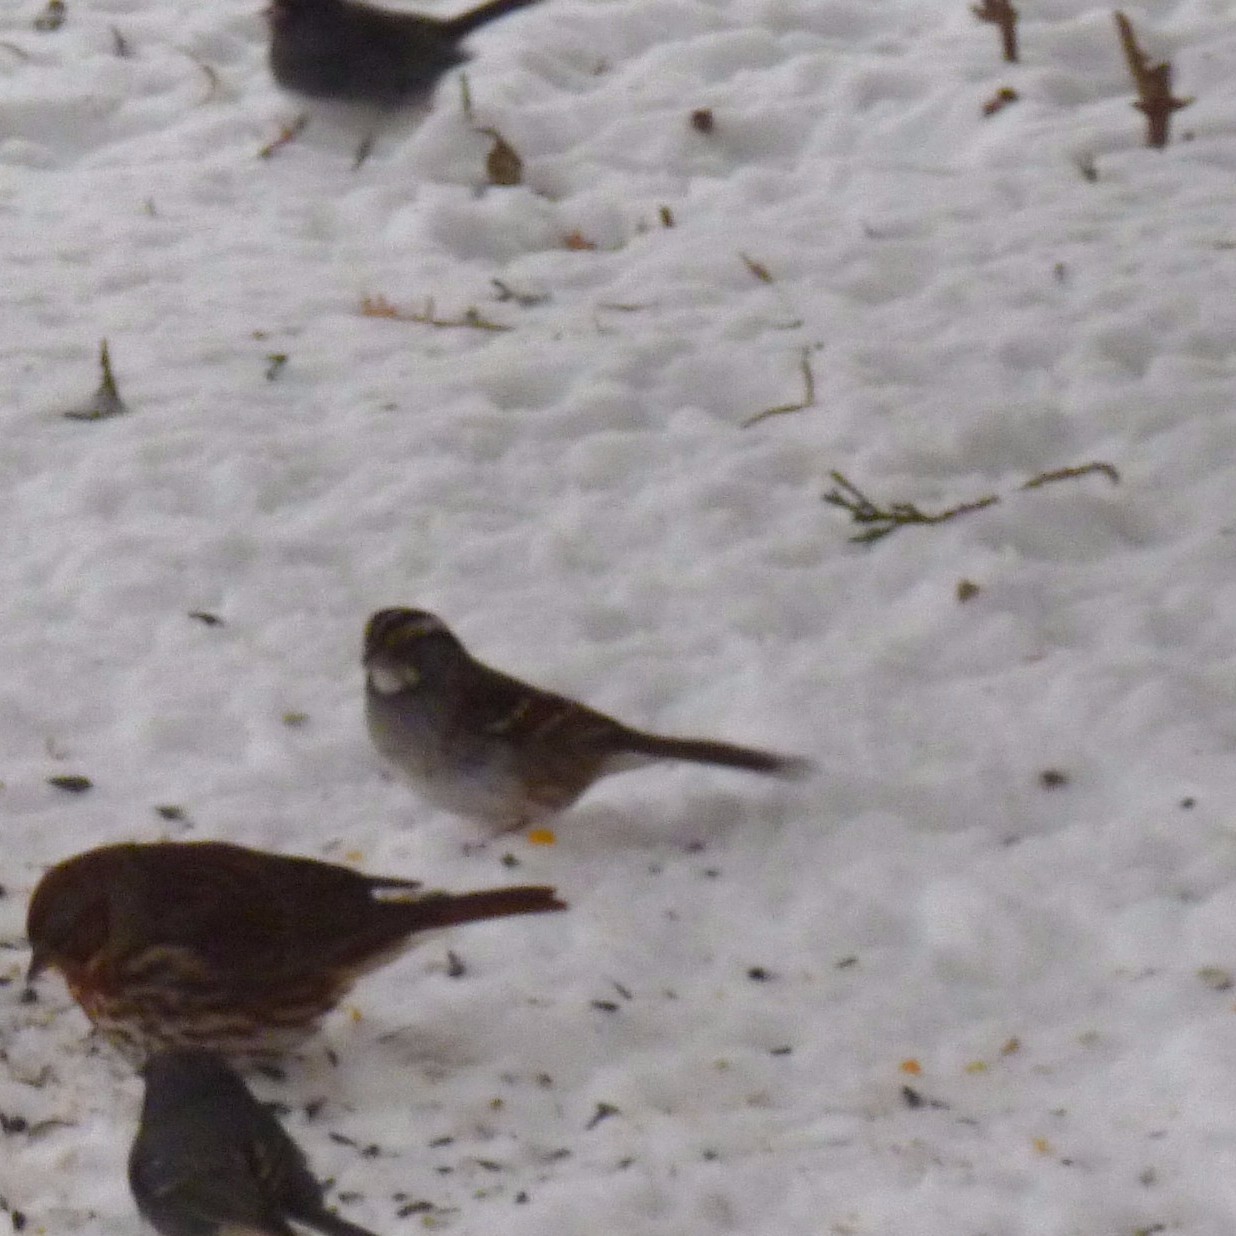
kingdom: Animalia
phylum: Chordata
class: Aves
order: Passeriformes
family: Passerellidae
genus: Zonotrichia
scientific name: Zonotrichia albicollis
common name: White-throated sparrow
